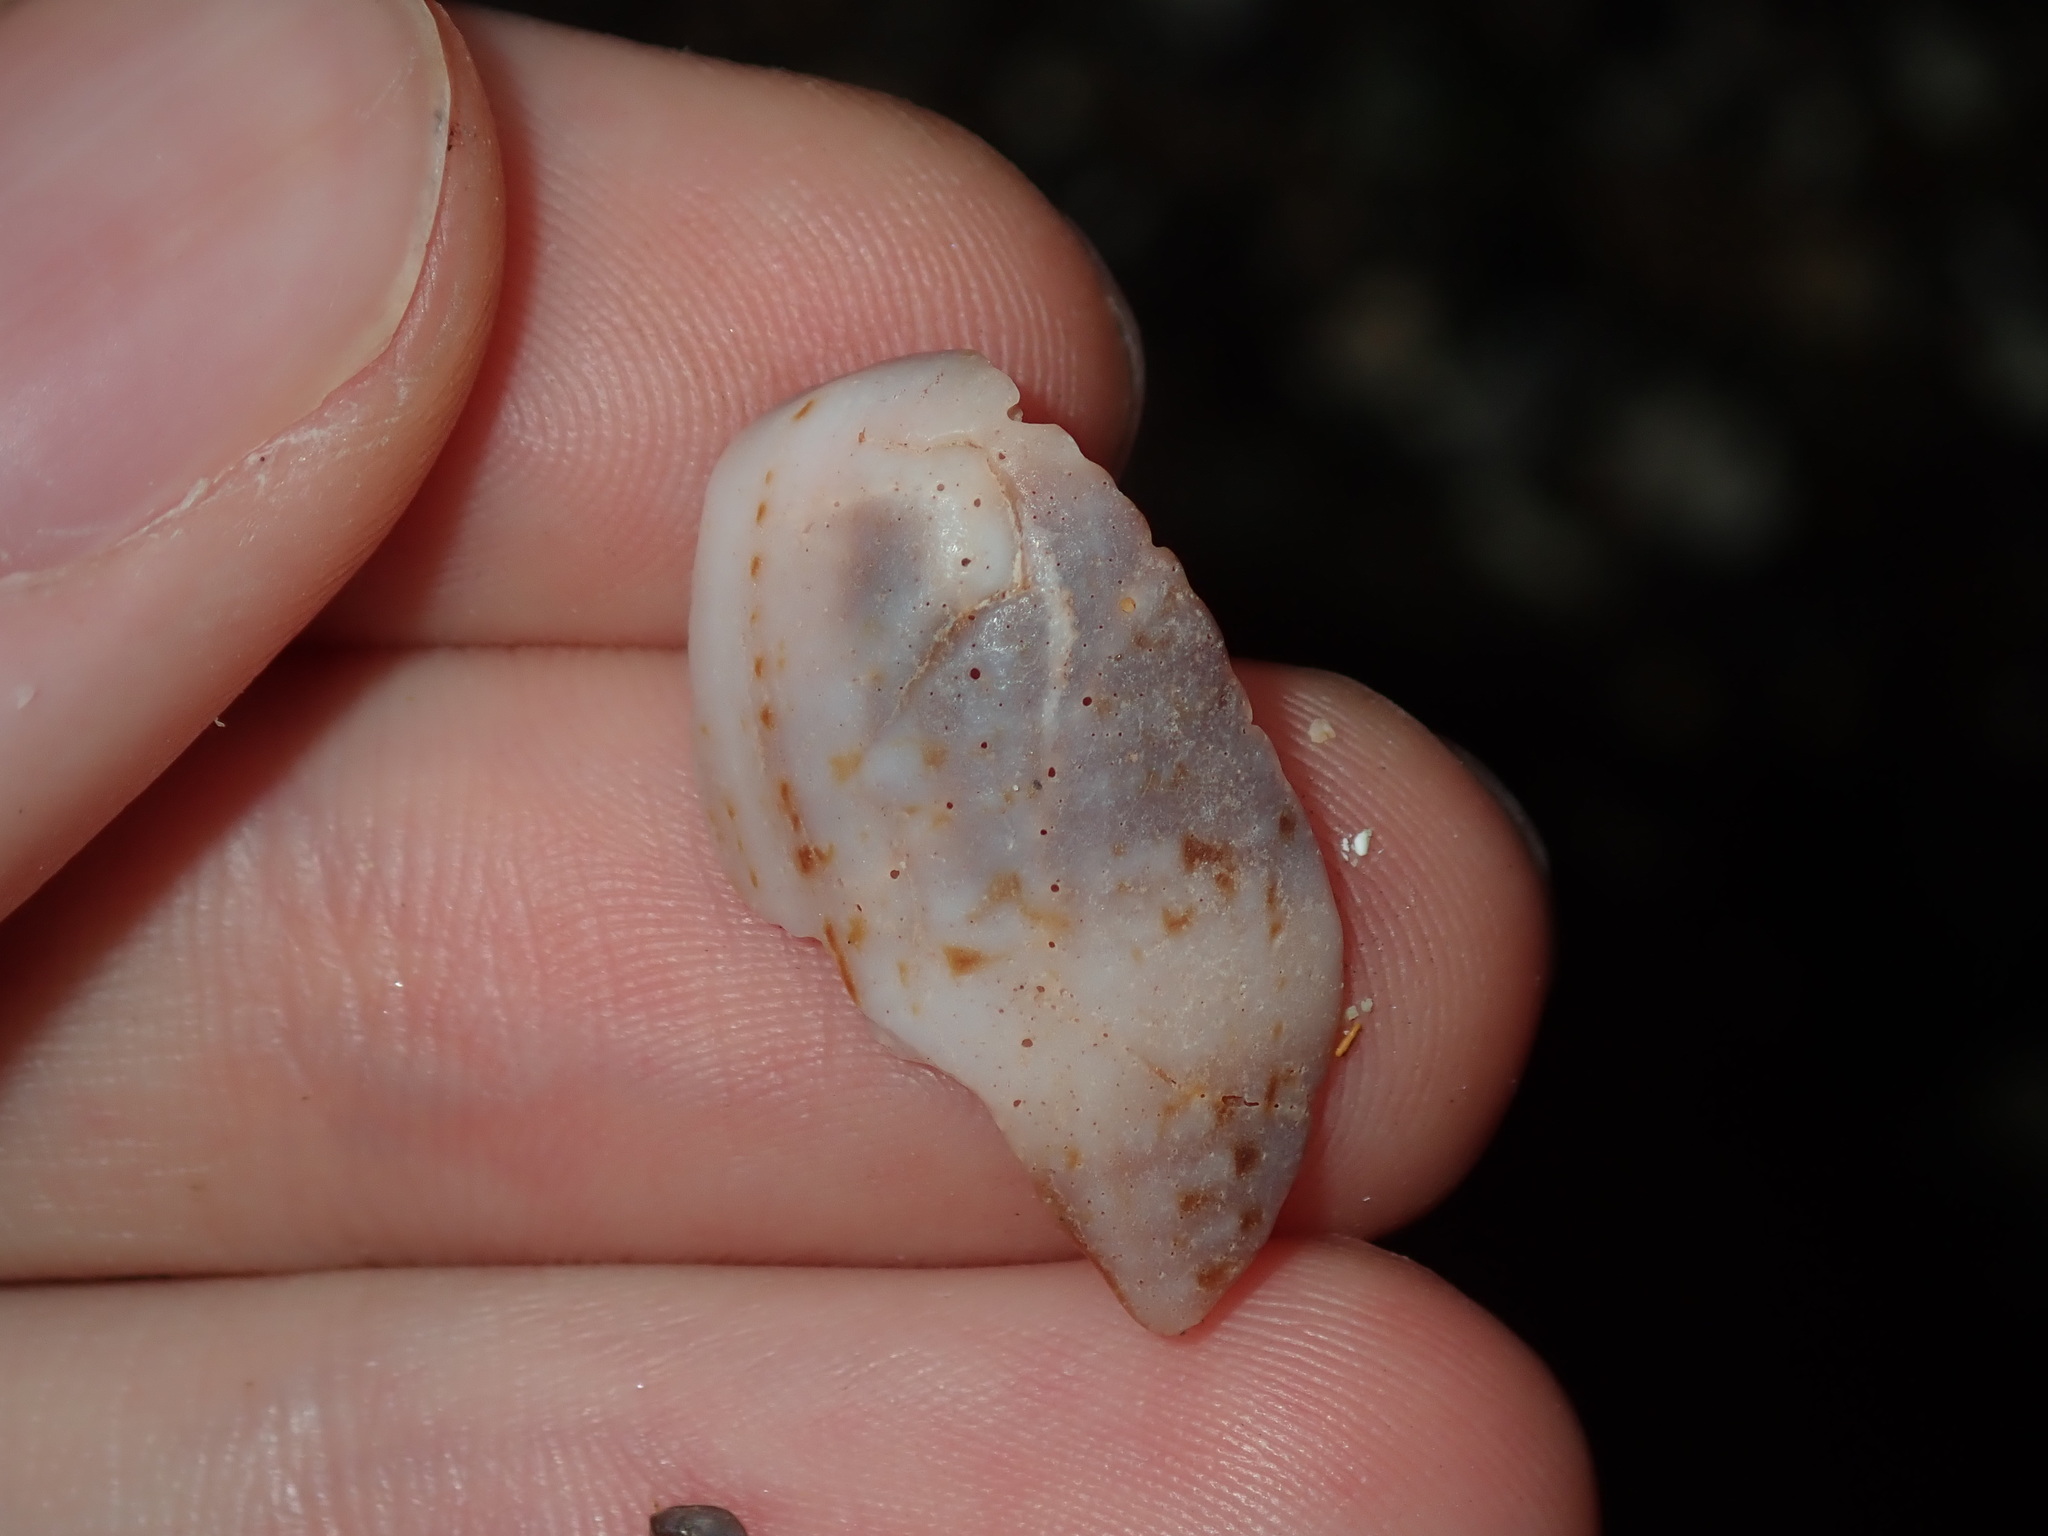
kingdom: Animalia
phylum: Mollusca
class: Gastropoda
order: Neogastropoda
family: Conidae
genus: Conus
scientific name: Conus anemone
